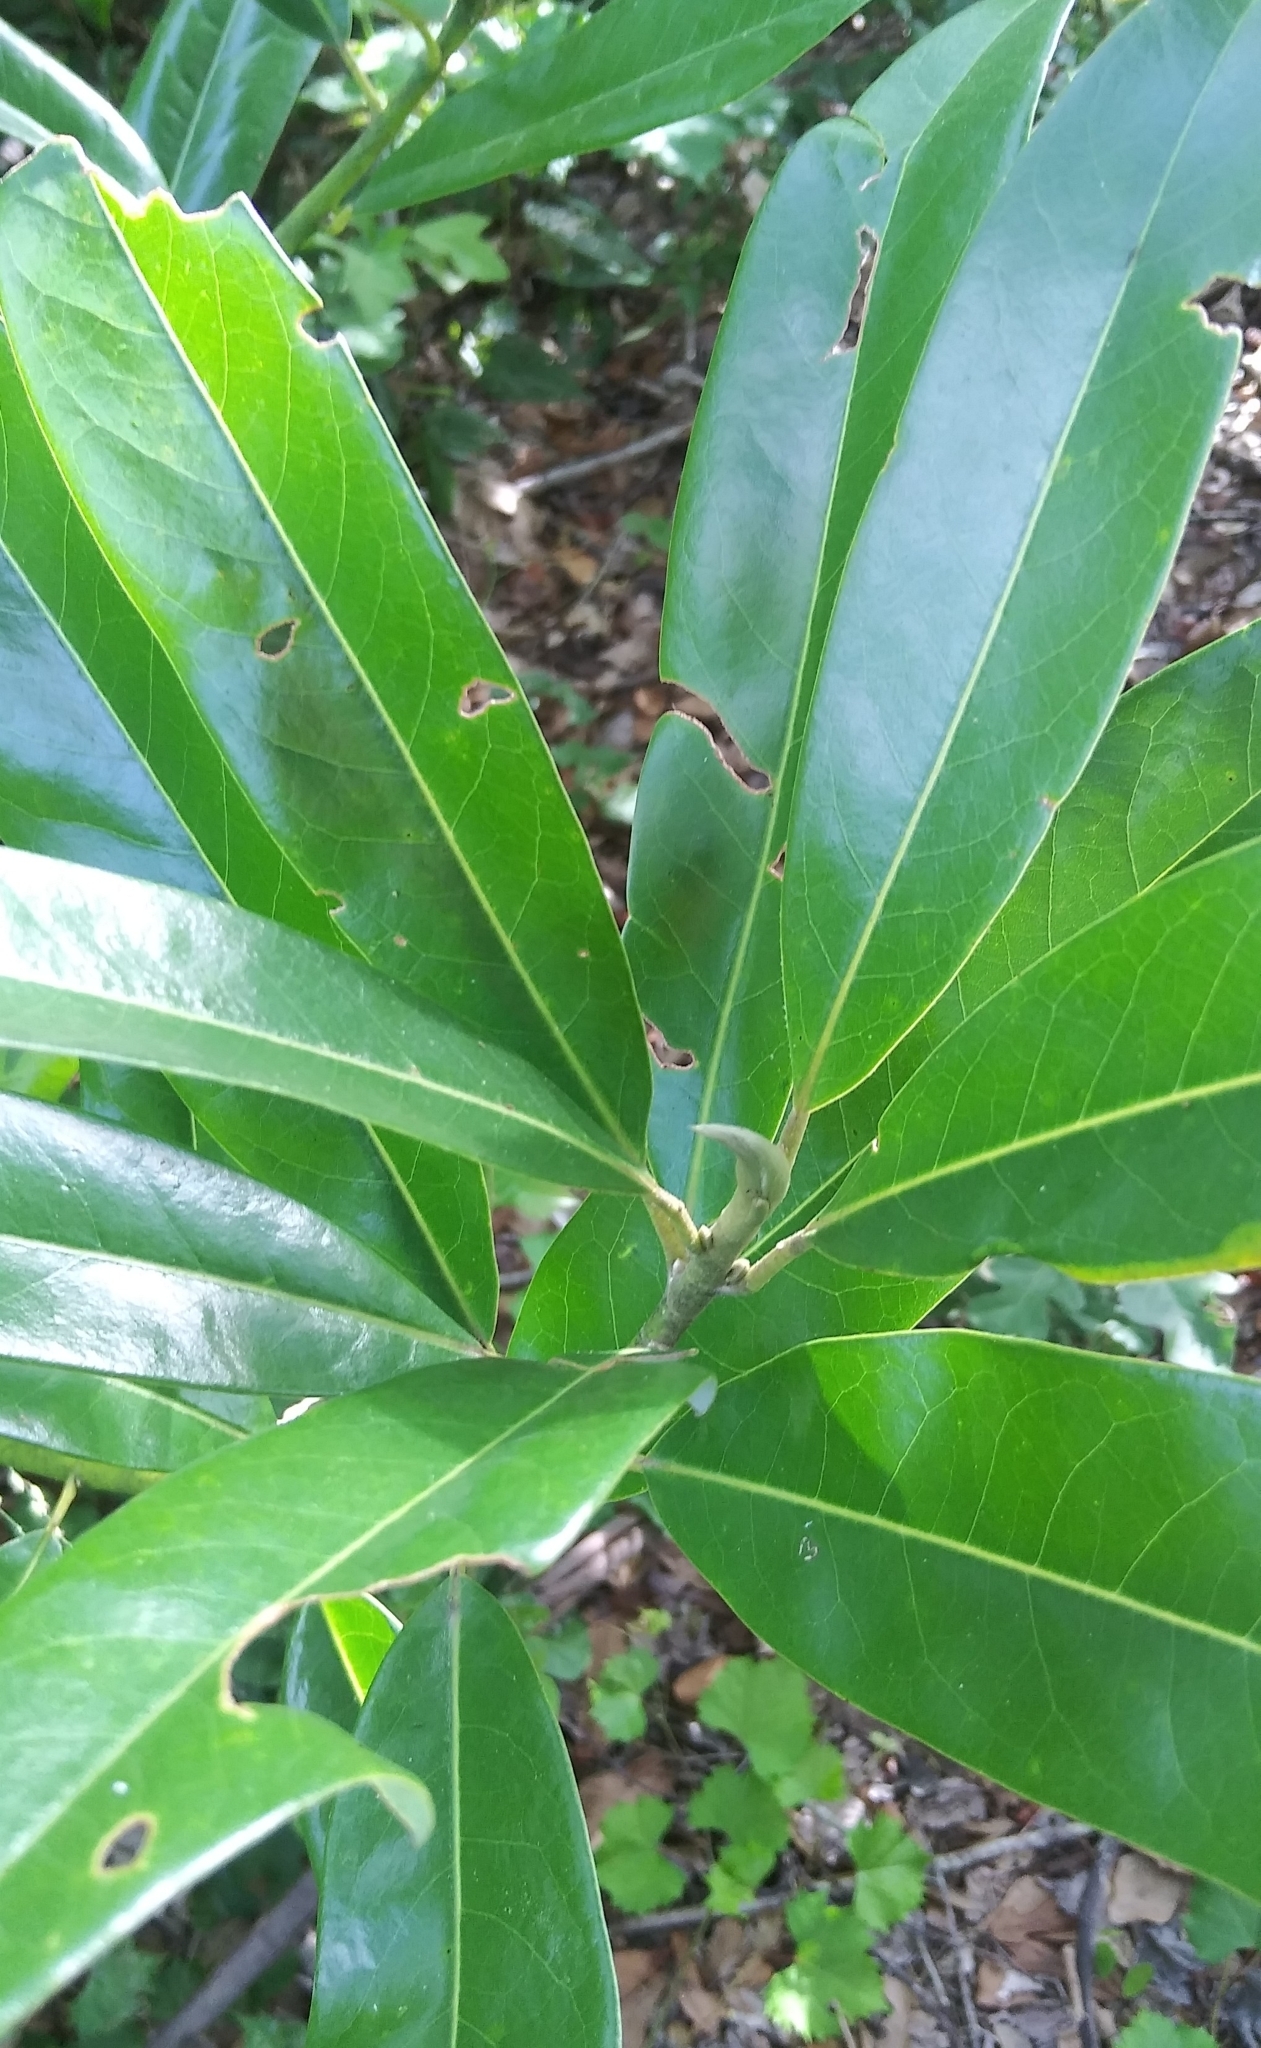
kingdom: Plantae
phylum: Tracheophyta
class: Magnoliopsida
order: Magnoliales
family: Magnoliaceae
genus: Magnolia
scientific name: Magnolia virginiana
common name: Swamp bay
